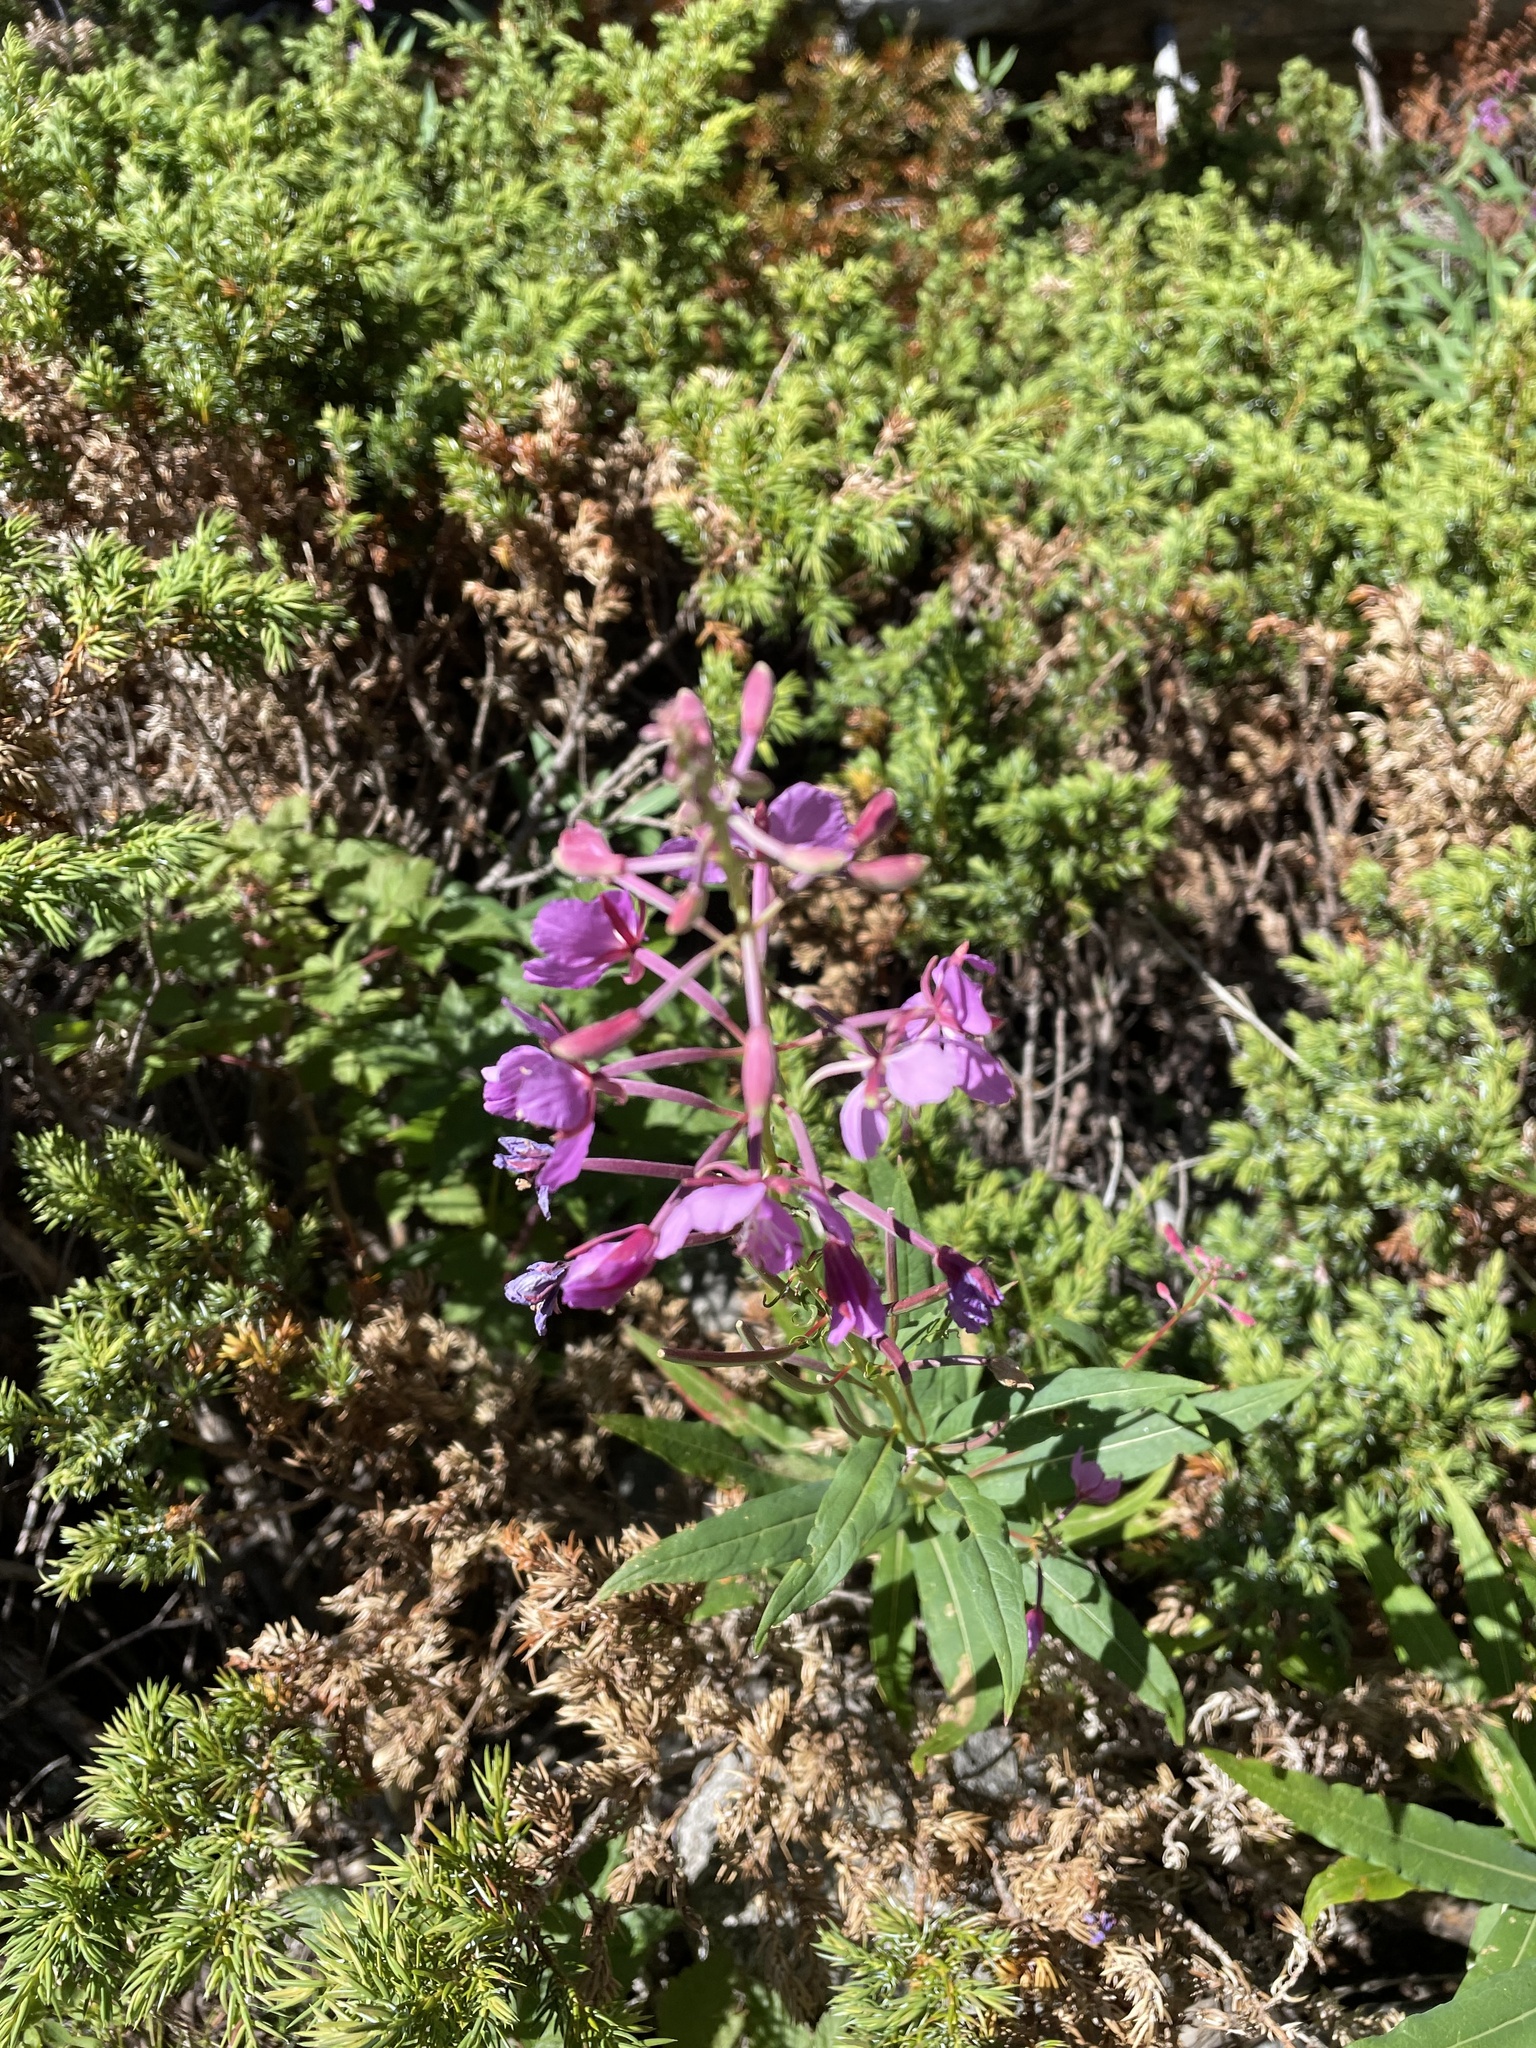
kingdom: Plantae
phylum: Tracheophyta
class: Magnoliopsida
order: Myrtales
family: Onagraceae
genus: Chamaenerion
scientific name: Chamaenerion angustifolium
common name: Fireweed
